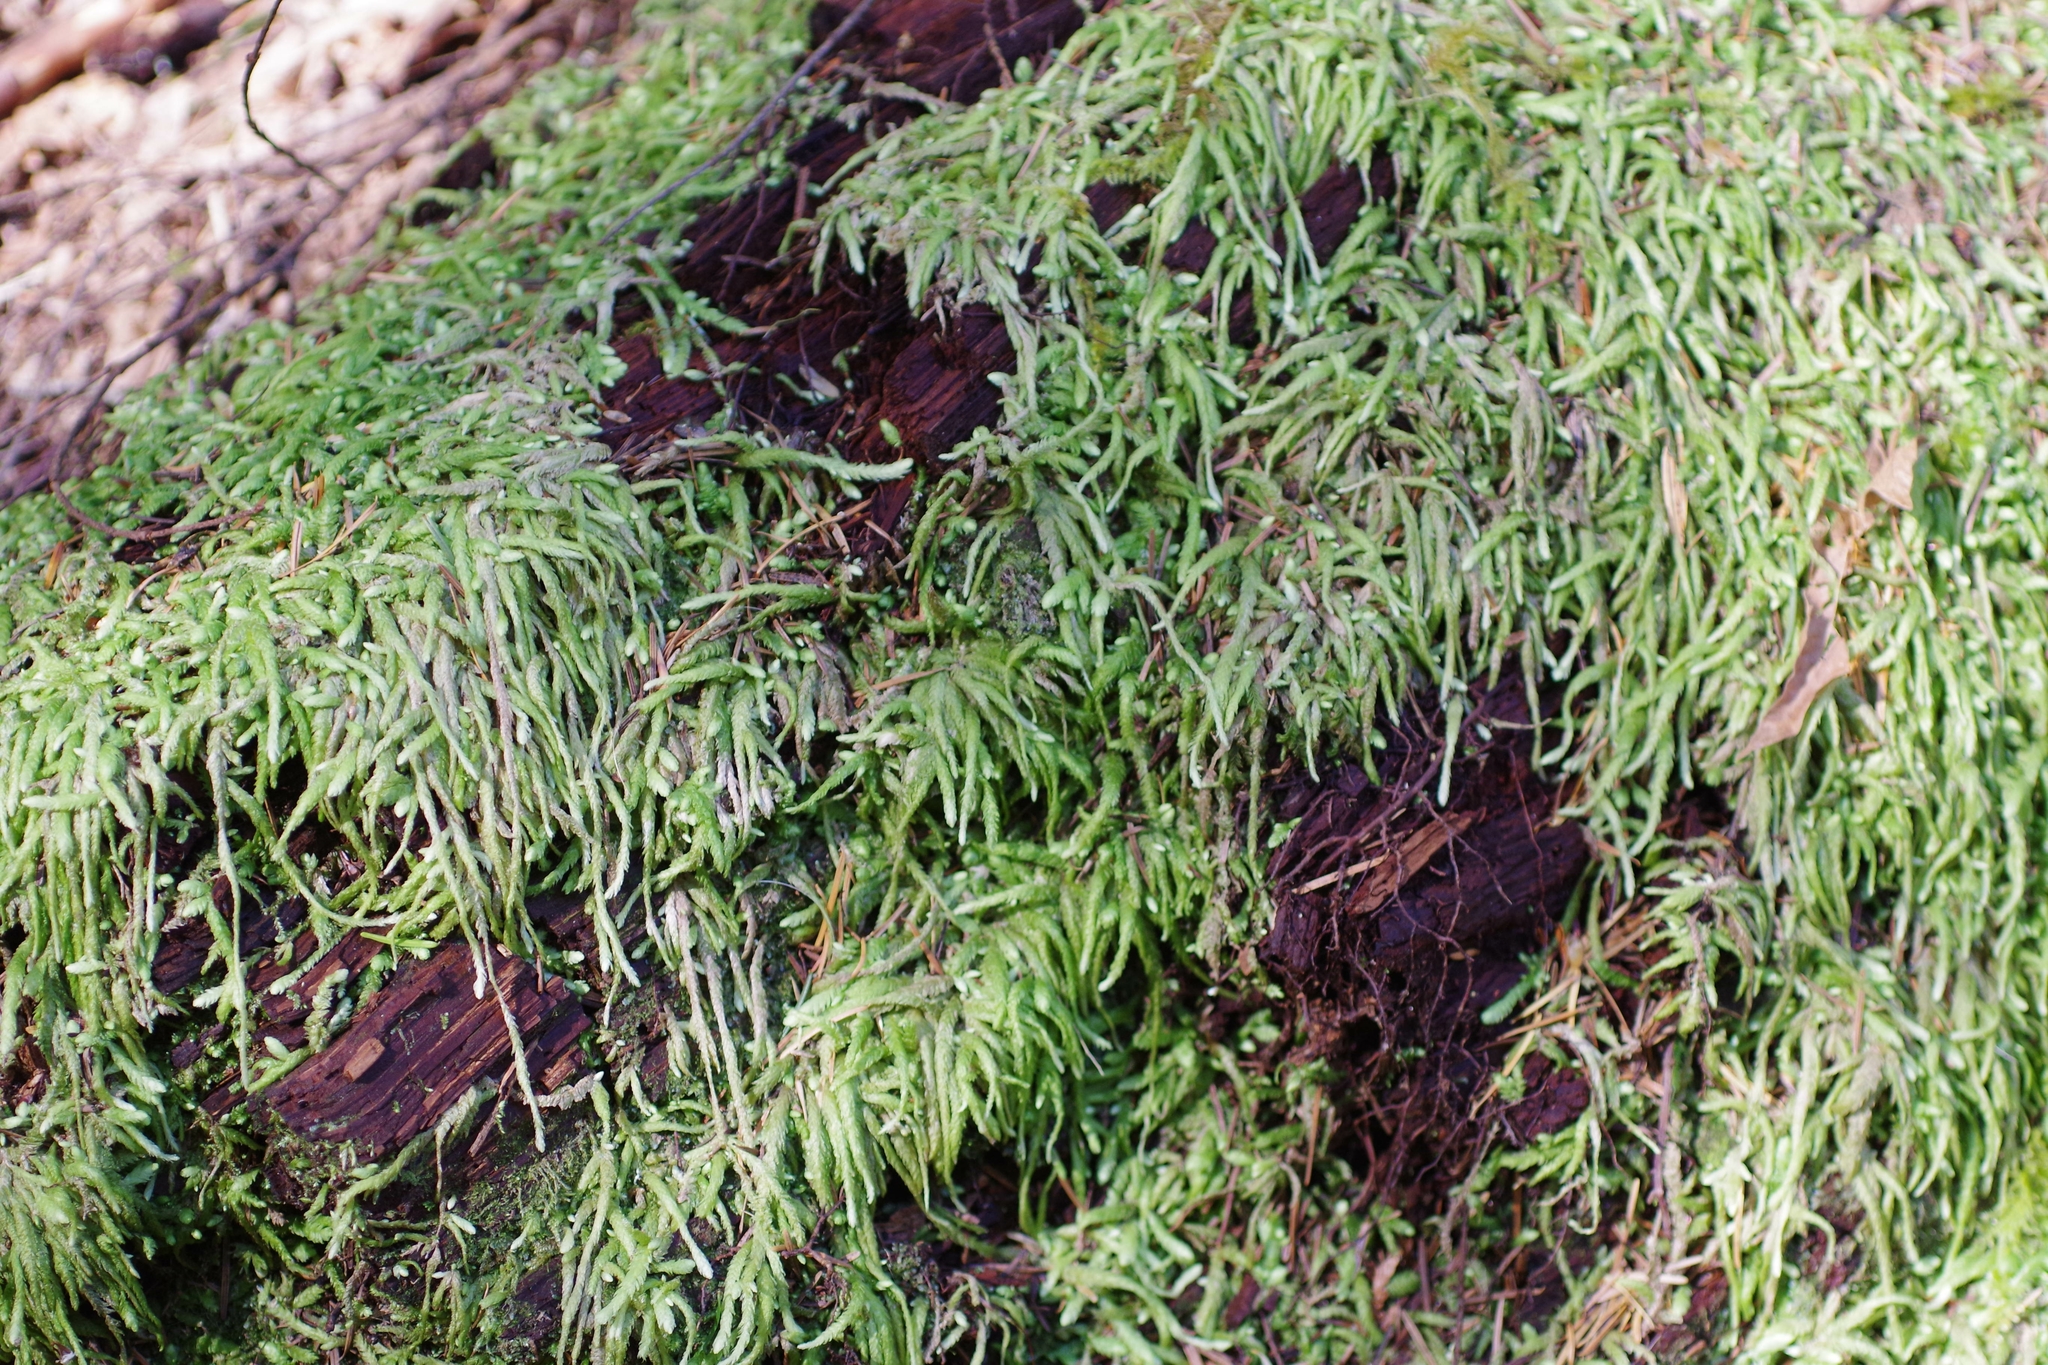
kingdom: Plantae
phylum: Bryophyta
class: Bryopsida
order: Hypnales
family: Plagiotheciaceae
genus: Plagiothecium
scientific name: Plagiothecium undulatum
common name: Waved silk-moss
